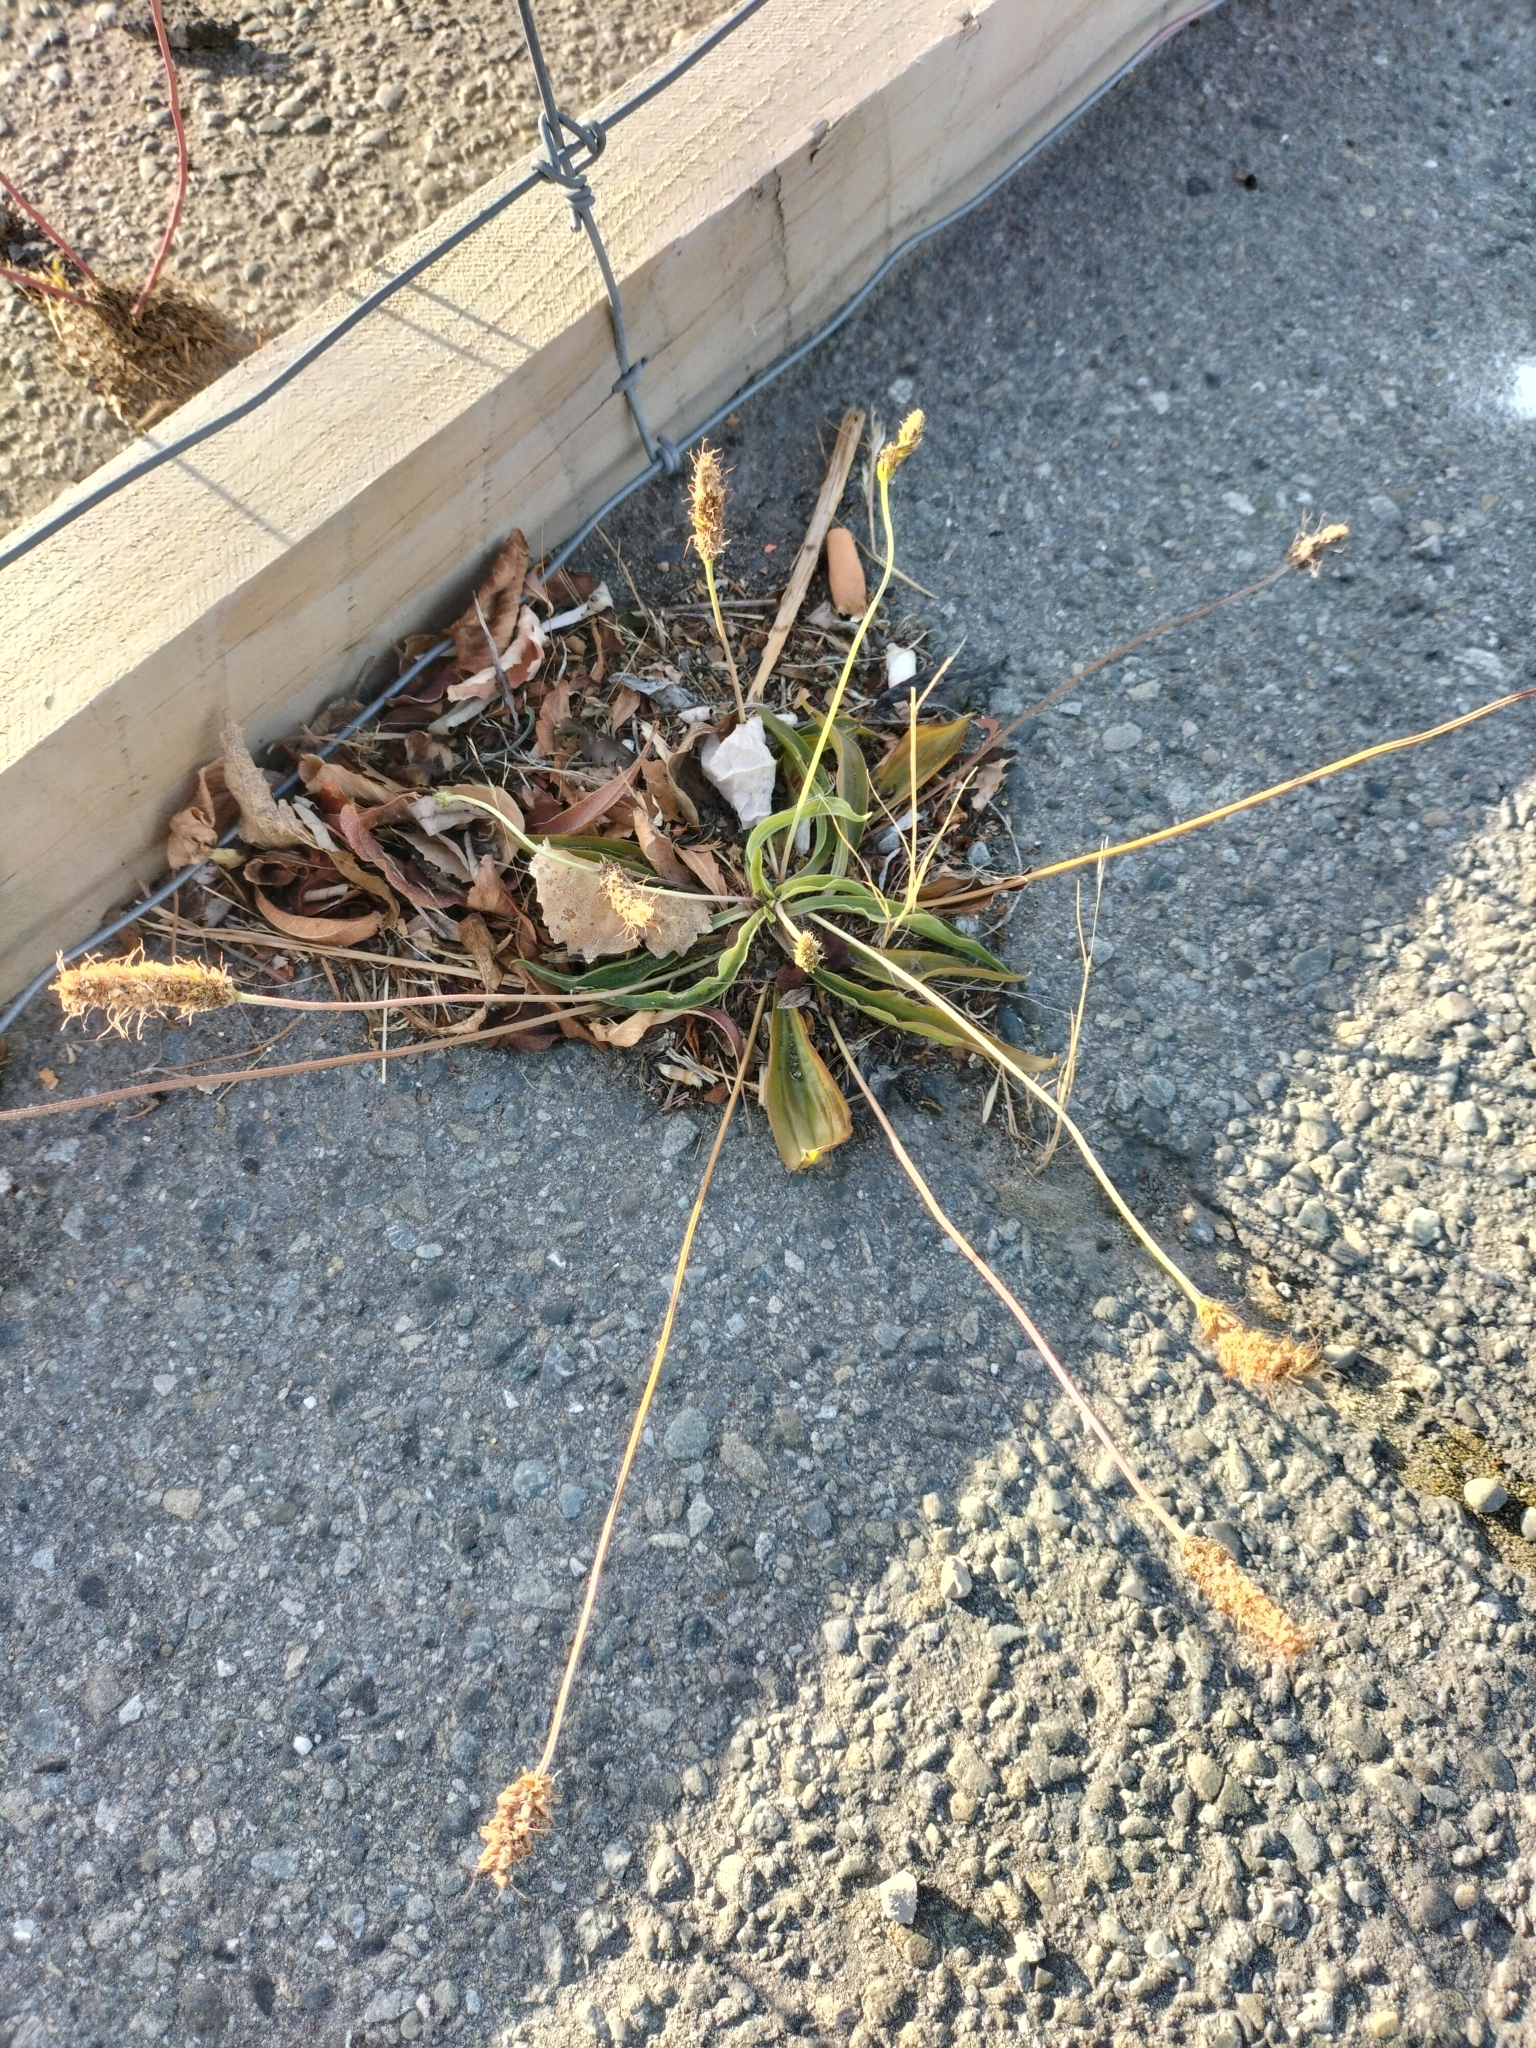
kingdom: Plantae
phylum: Tracheophyta
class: Magnoliopsida
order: Lamiales
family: Plantaginaceae
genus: Plantago
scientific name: Plantago lanceolata
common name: Ribwort plantain
